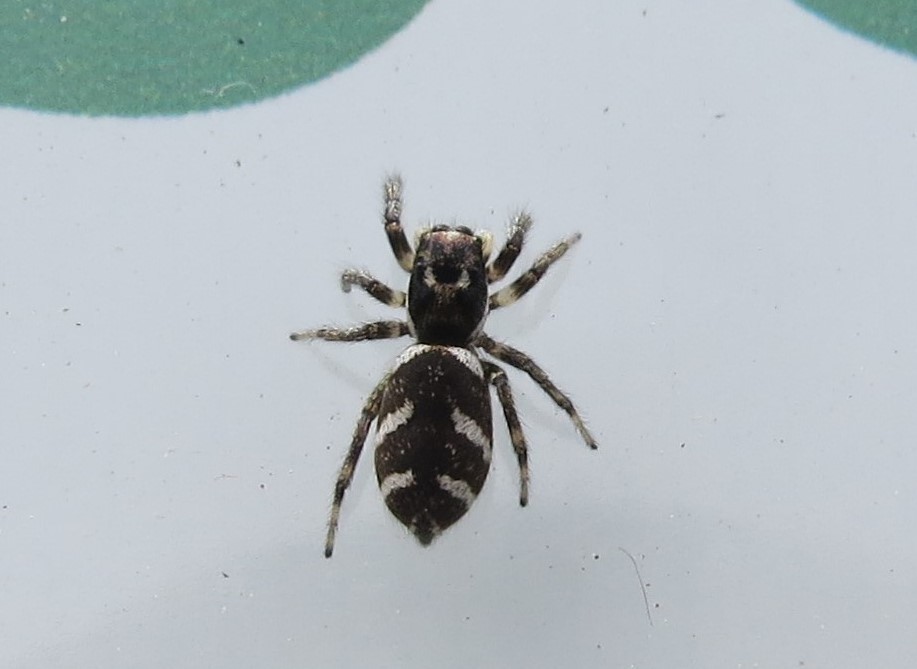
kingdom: Animalia
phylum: Arthropoda
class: Arachnida
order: Araneae
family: Salticidae
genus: Salticus
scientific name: Salticus scenicus
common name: Zebra jumper
